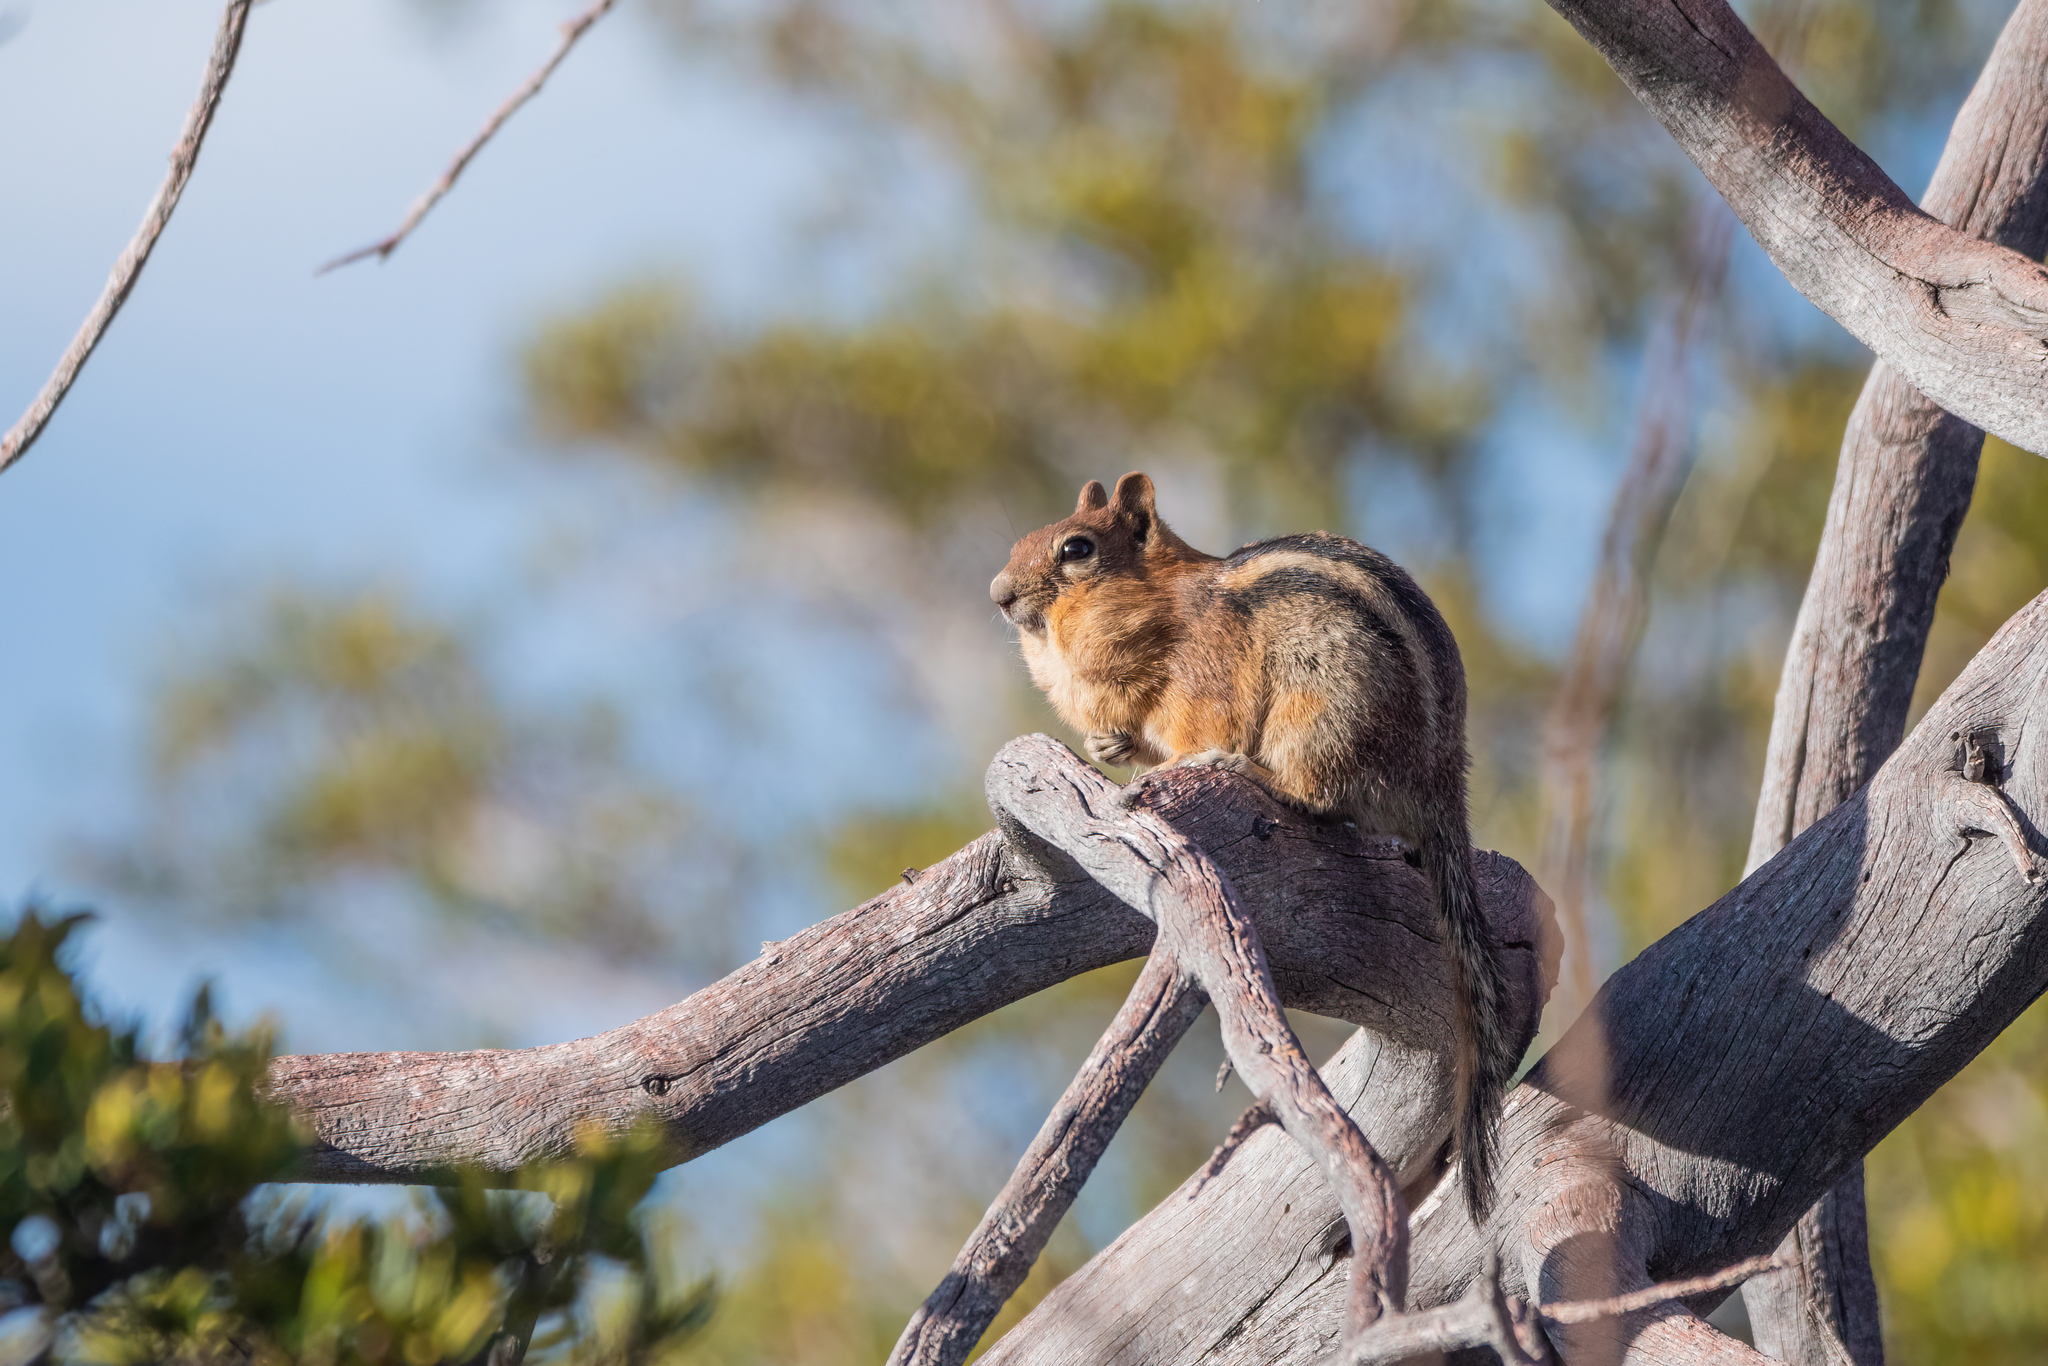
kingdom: Animalia
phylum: Chordata
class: Mammalia
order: Rodentia
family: Sciuridae
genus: Callospermophilus
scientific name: Callospermophilus lateralis
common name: Golden-mantled ground squirrel
